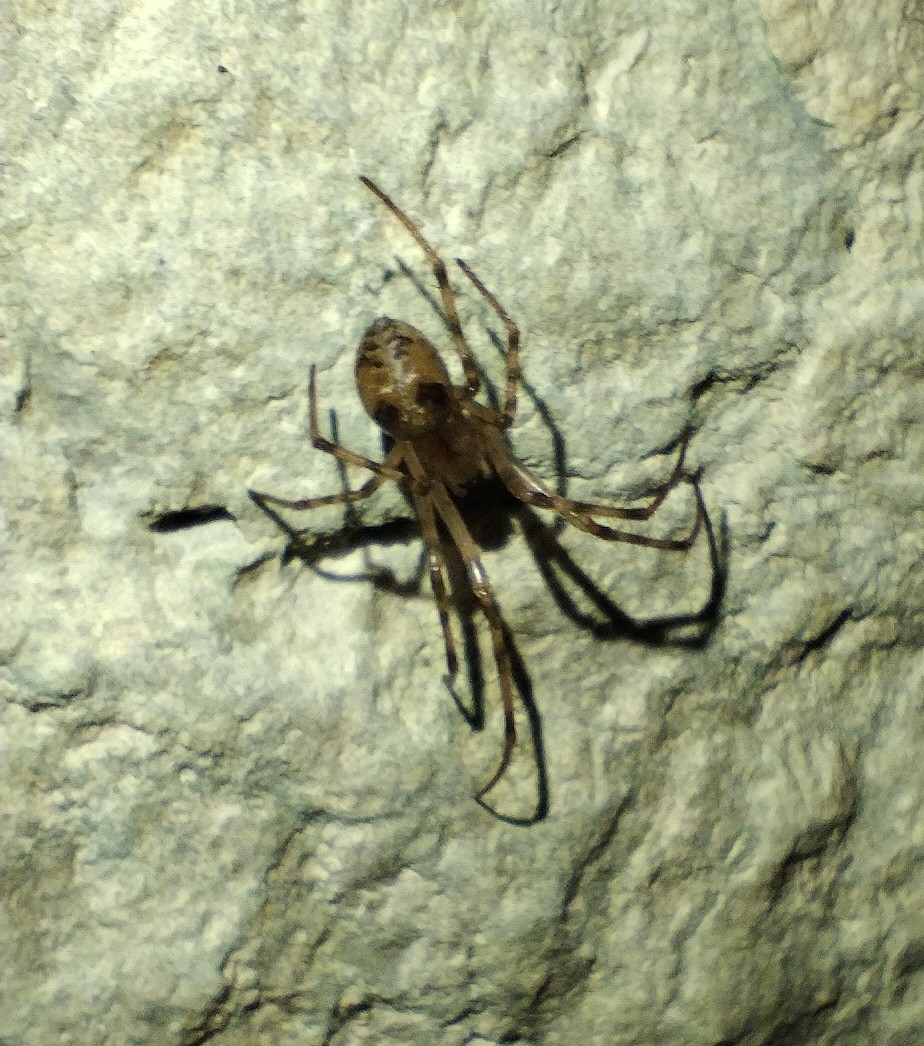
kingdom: Animalia
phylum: Arthropoda
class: Arachnida
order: Araneae
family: Tetragnathidae
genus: Meta
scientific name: Meta menardi
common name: Cave spider
